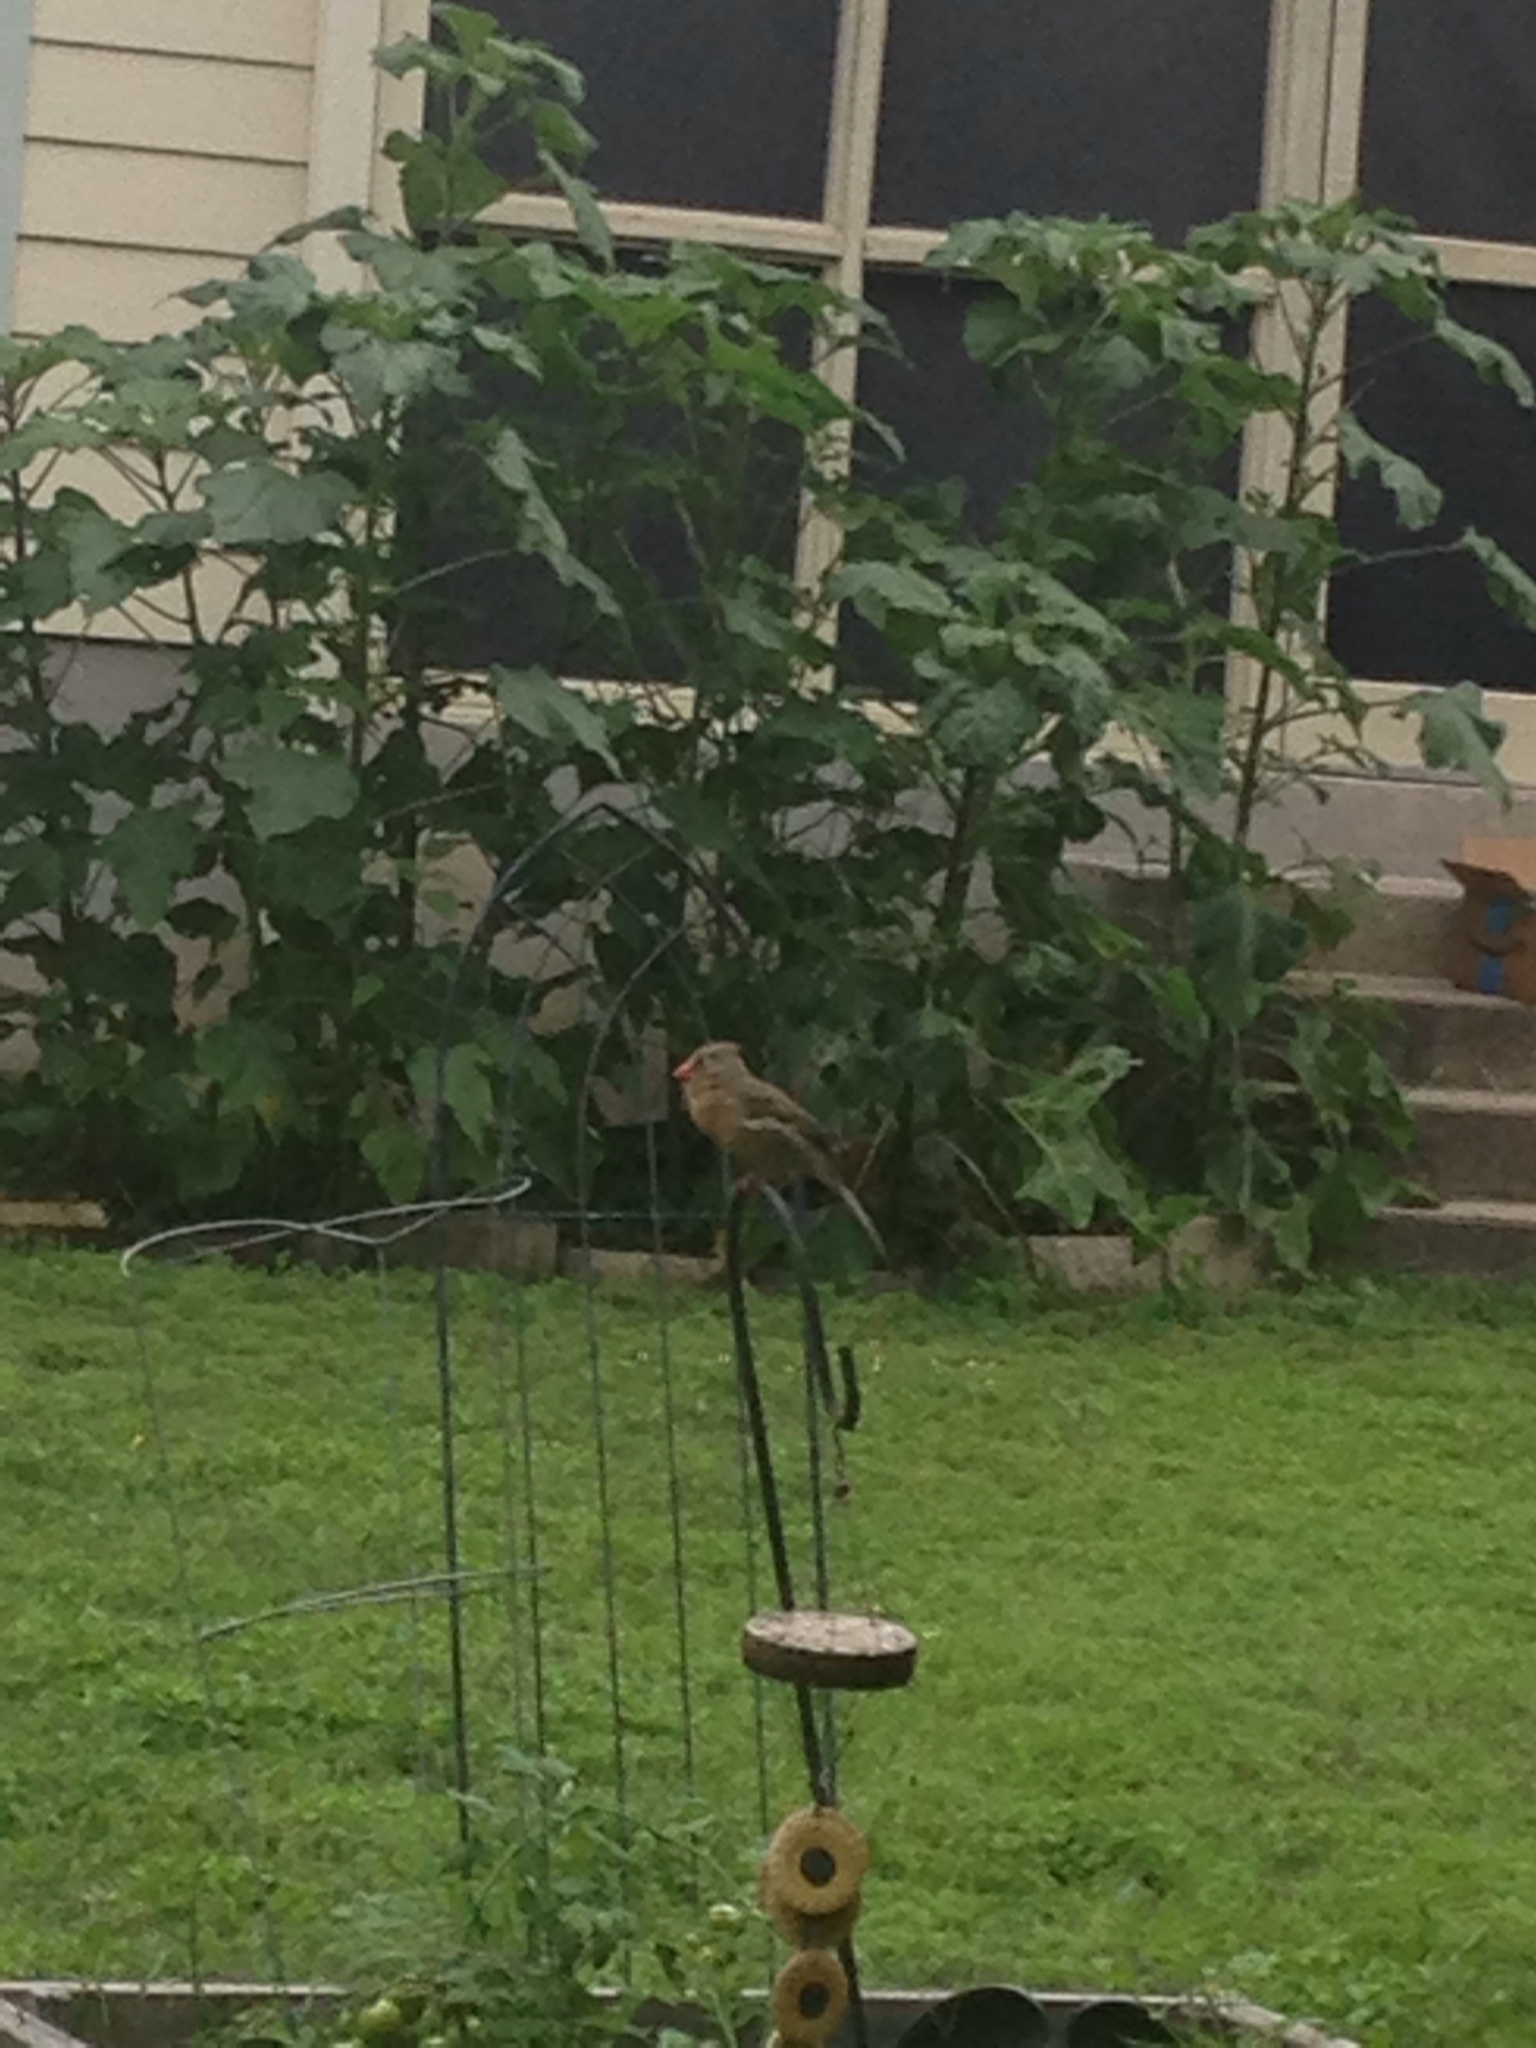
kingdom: Animalia
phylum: Chordata
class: Aves
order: Passeriformes
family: Cardinalidae
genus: Cardinalis
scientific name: Cardinalis cardinalis
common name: Northern cardinal
